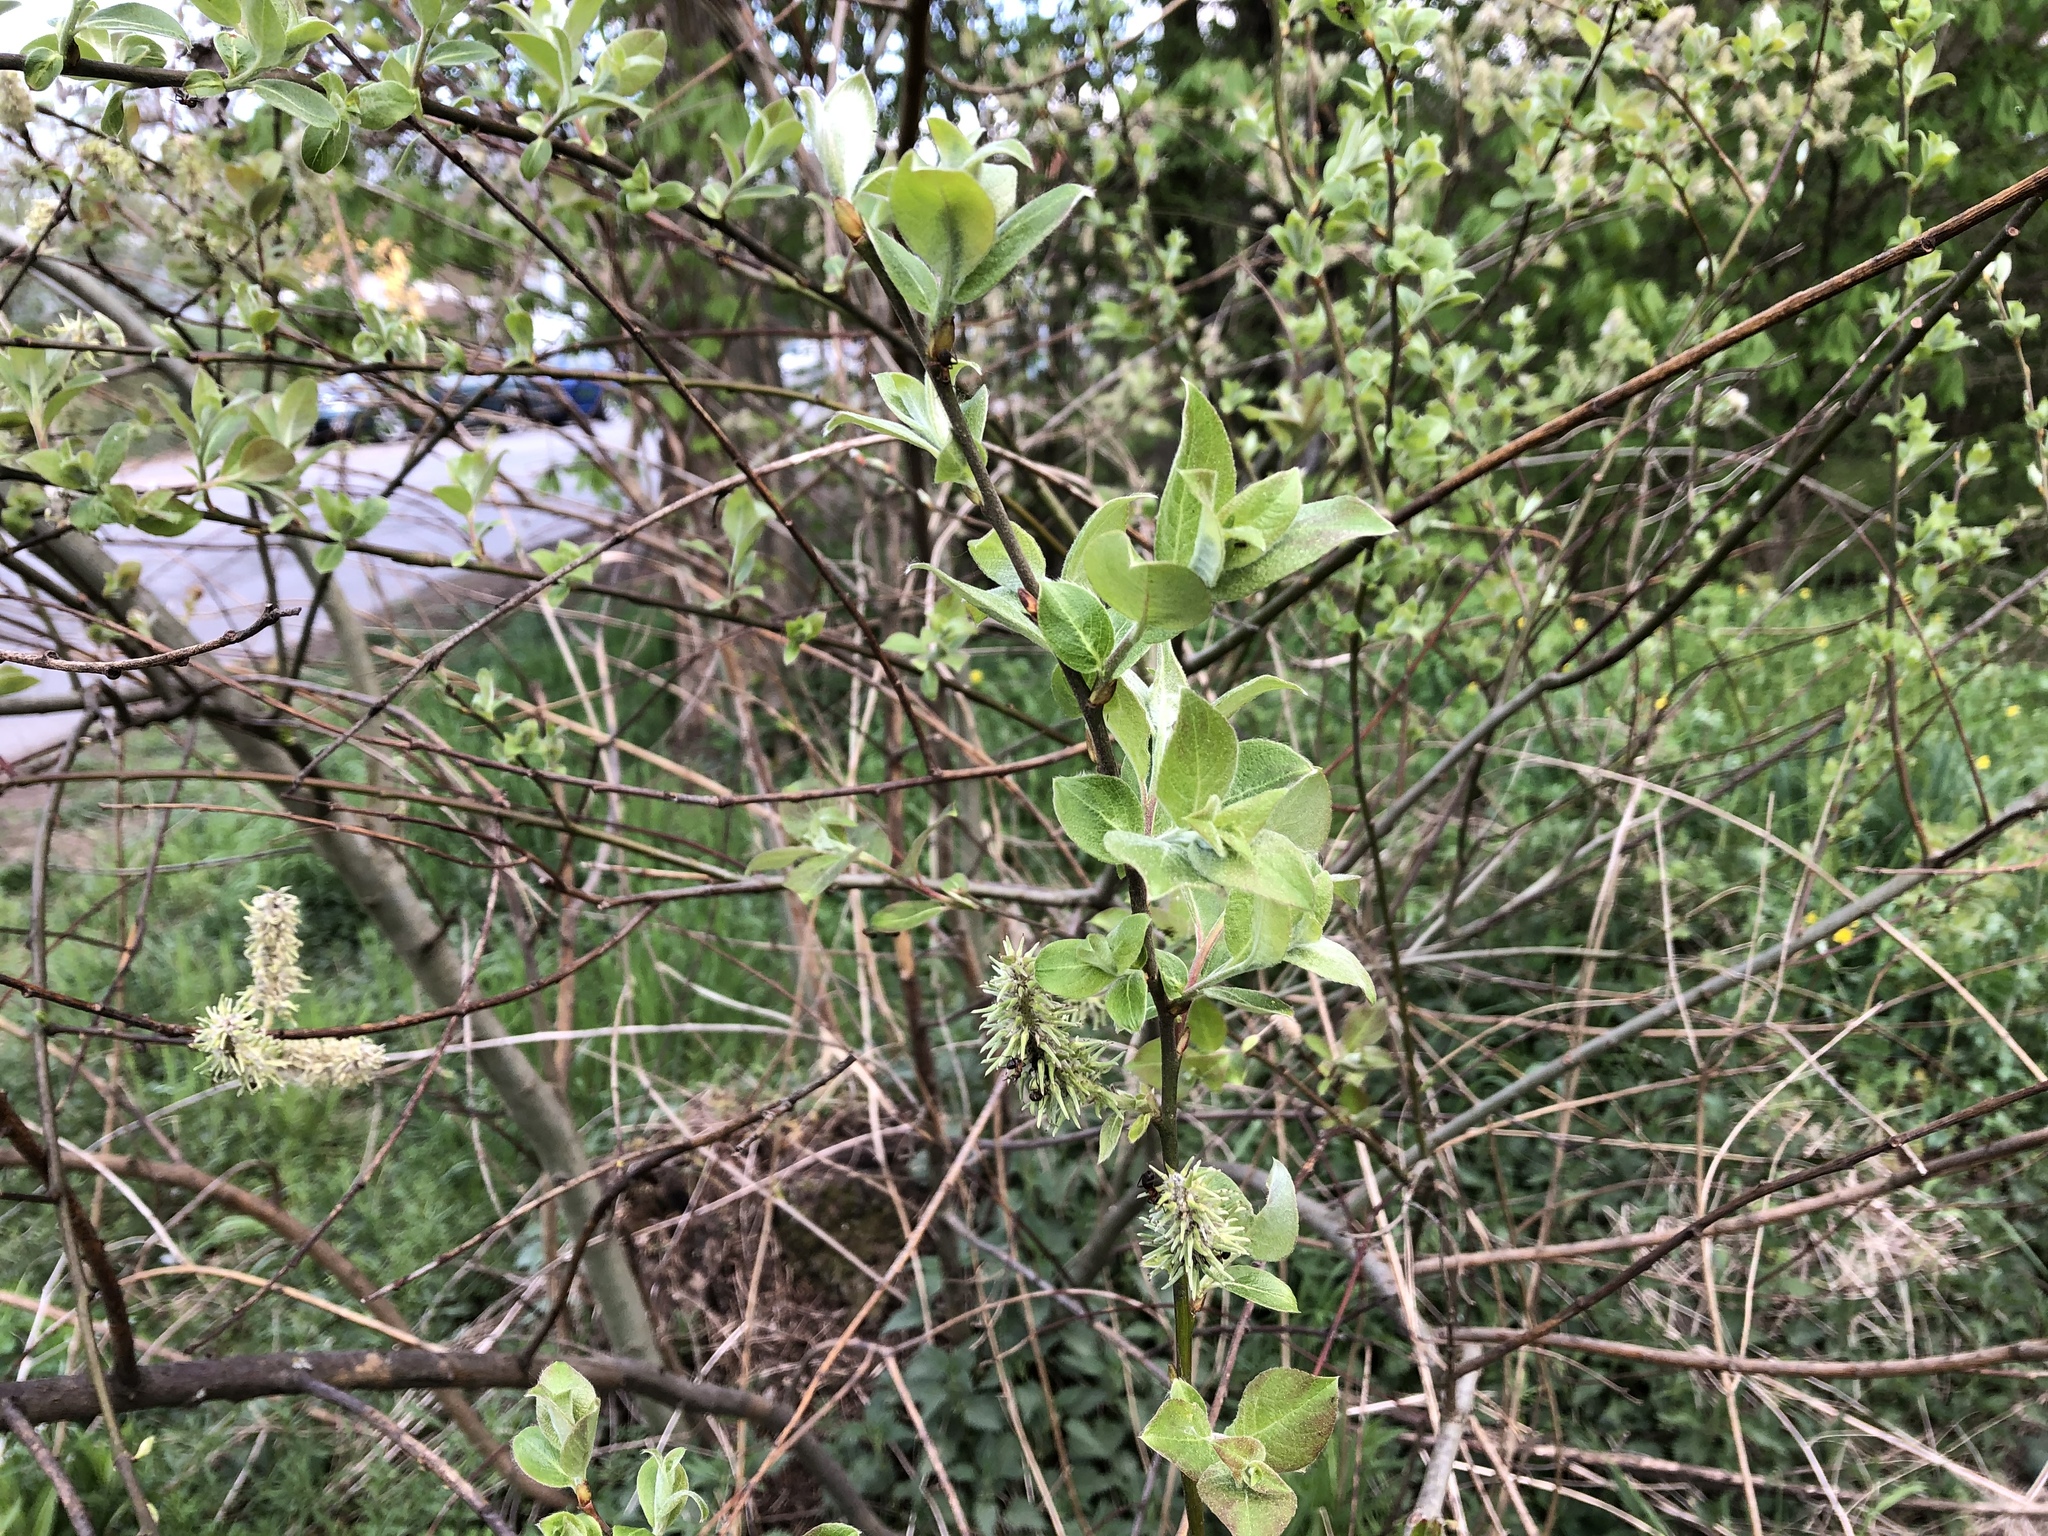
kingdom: Plantae
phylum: Tracheophyta
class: Magnoliopsida
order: Malpighiales
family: Salicaceae
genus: Salix
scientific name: Salix caprea
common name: Goat willow
